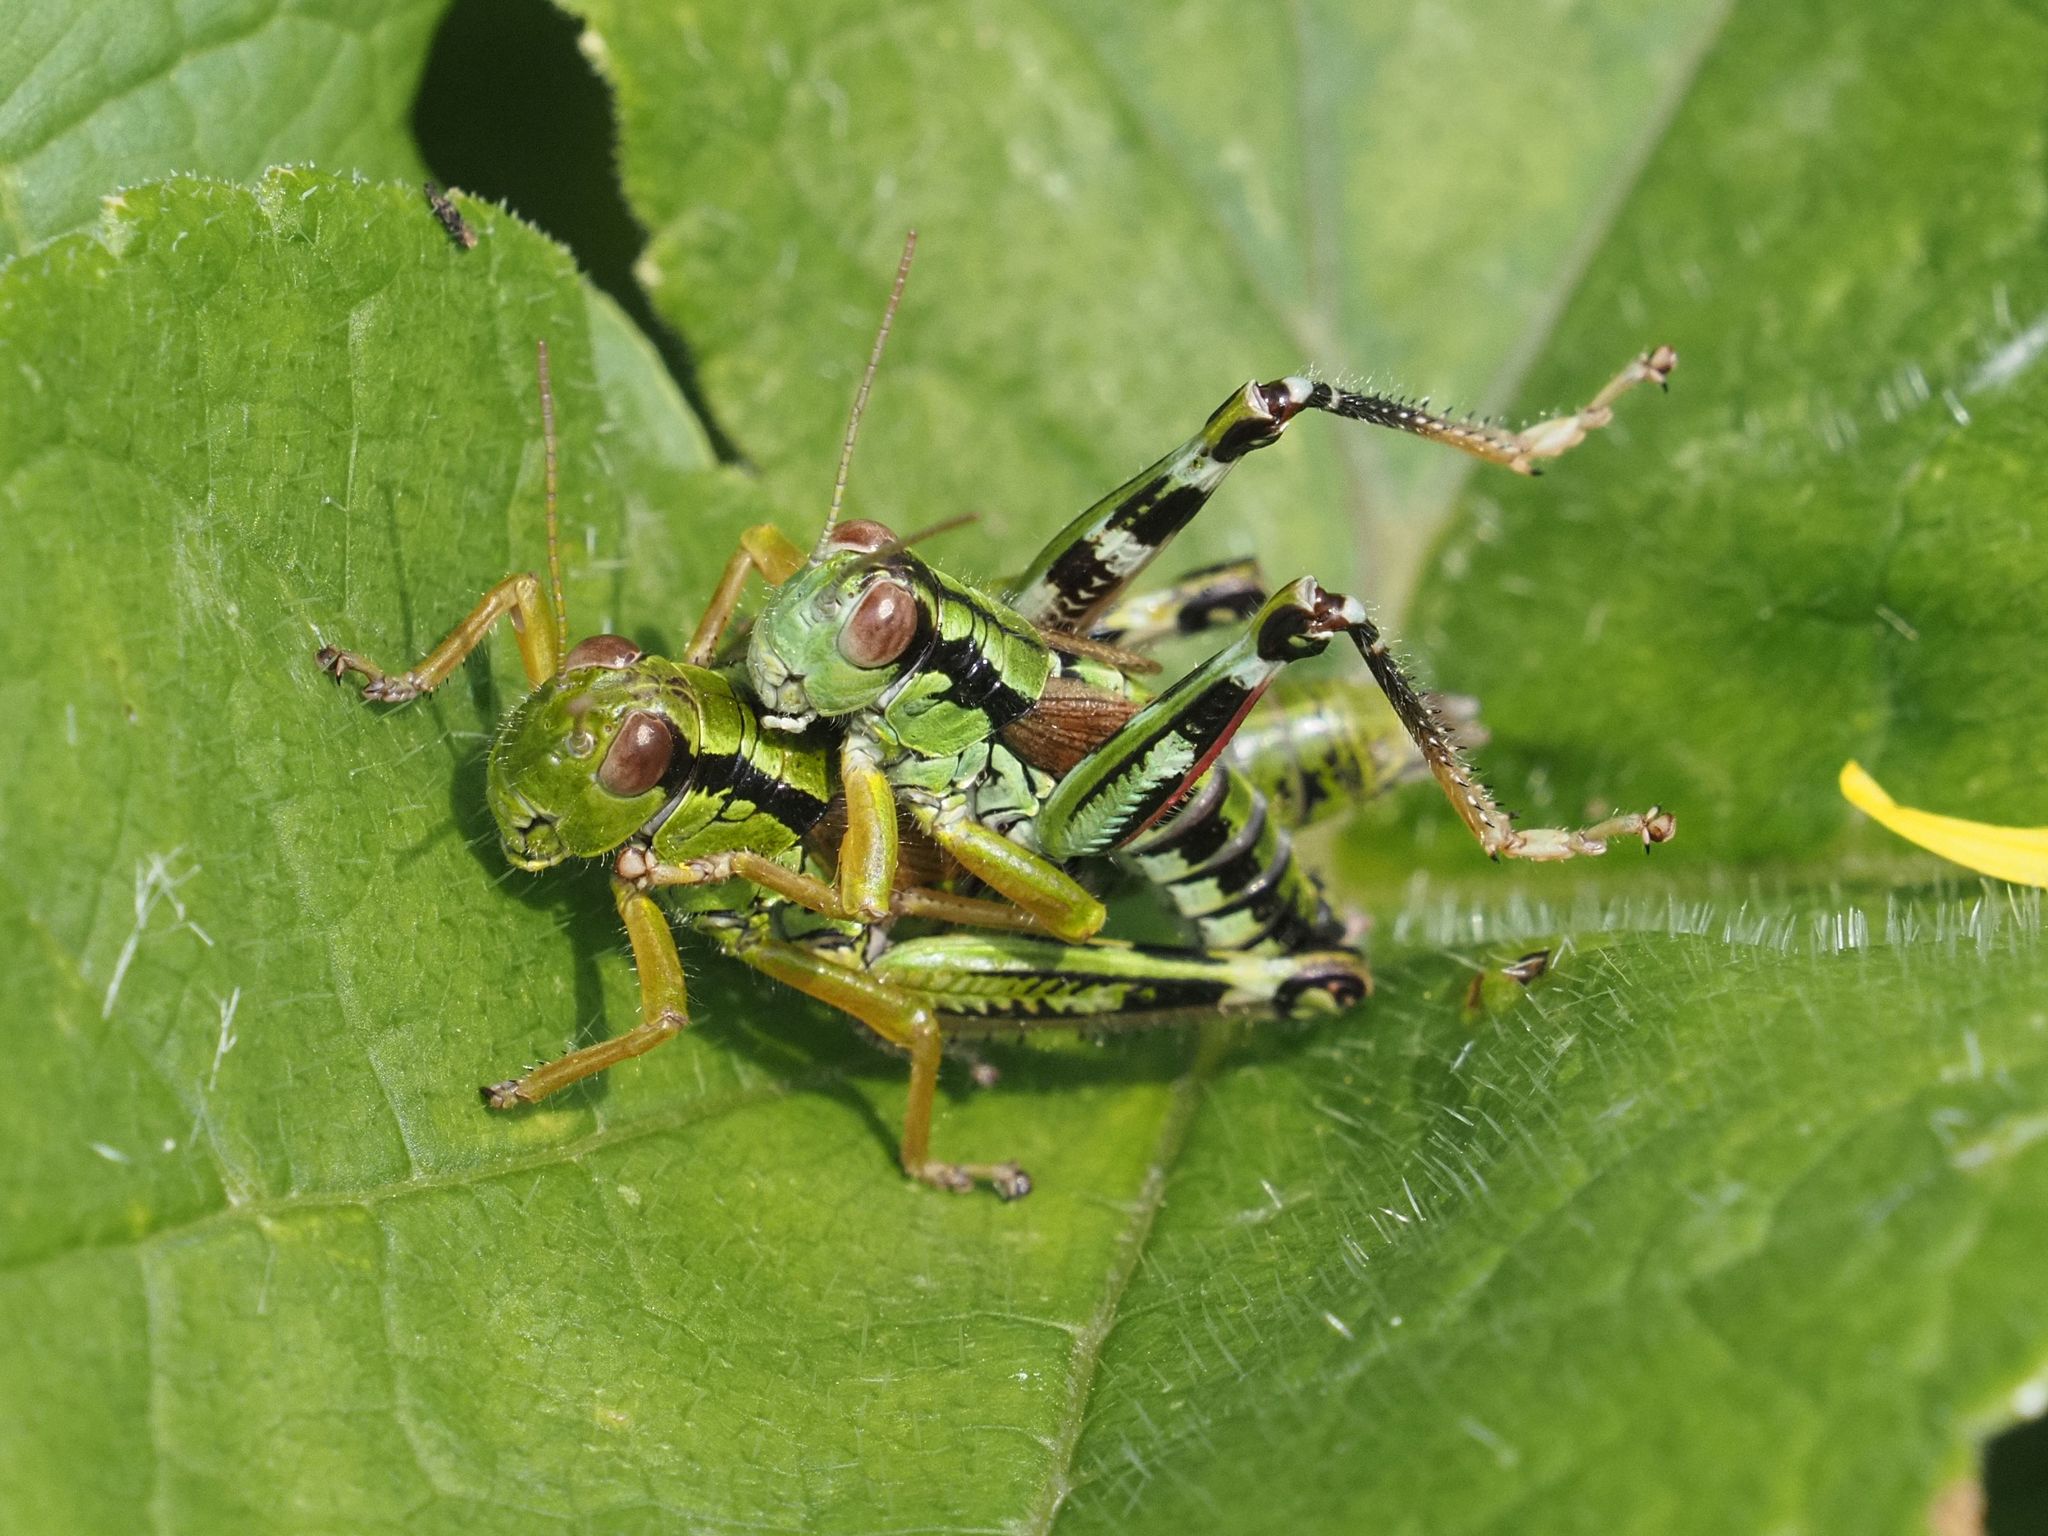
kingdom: Animalia
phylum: Arthropoda
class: Insecta
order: Orthoptera
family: Acrididae
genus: Miramella
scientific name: Miramella alpina
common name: Green mountain grasshopper
